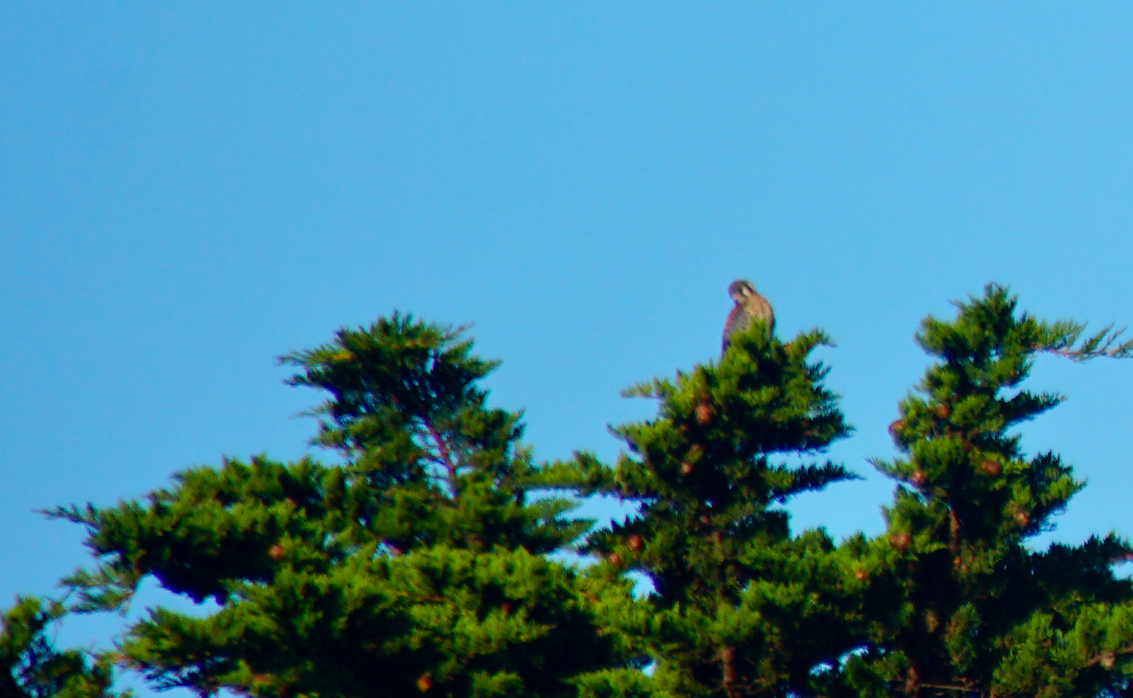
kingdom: Animalia
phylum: Chordata
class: Aves
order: Falconiformes
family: Falconidae
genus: Falco
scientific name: Falco sparverius
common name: American kestrel
